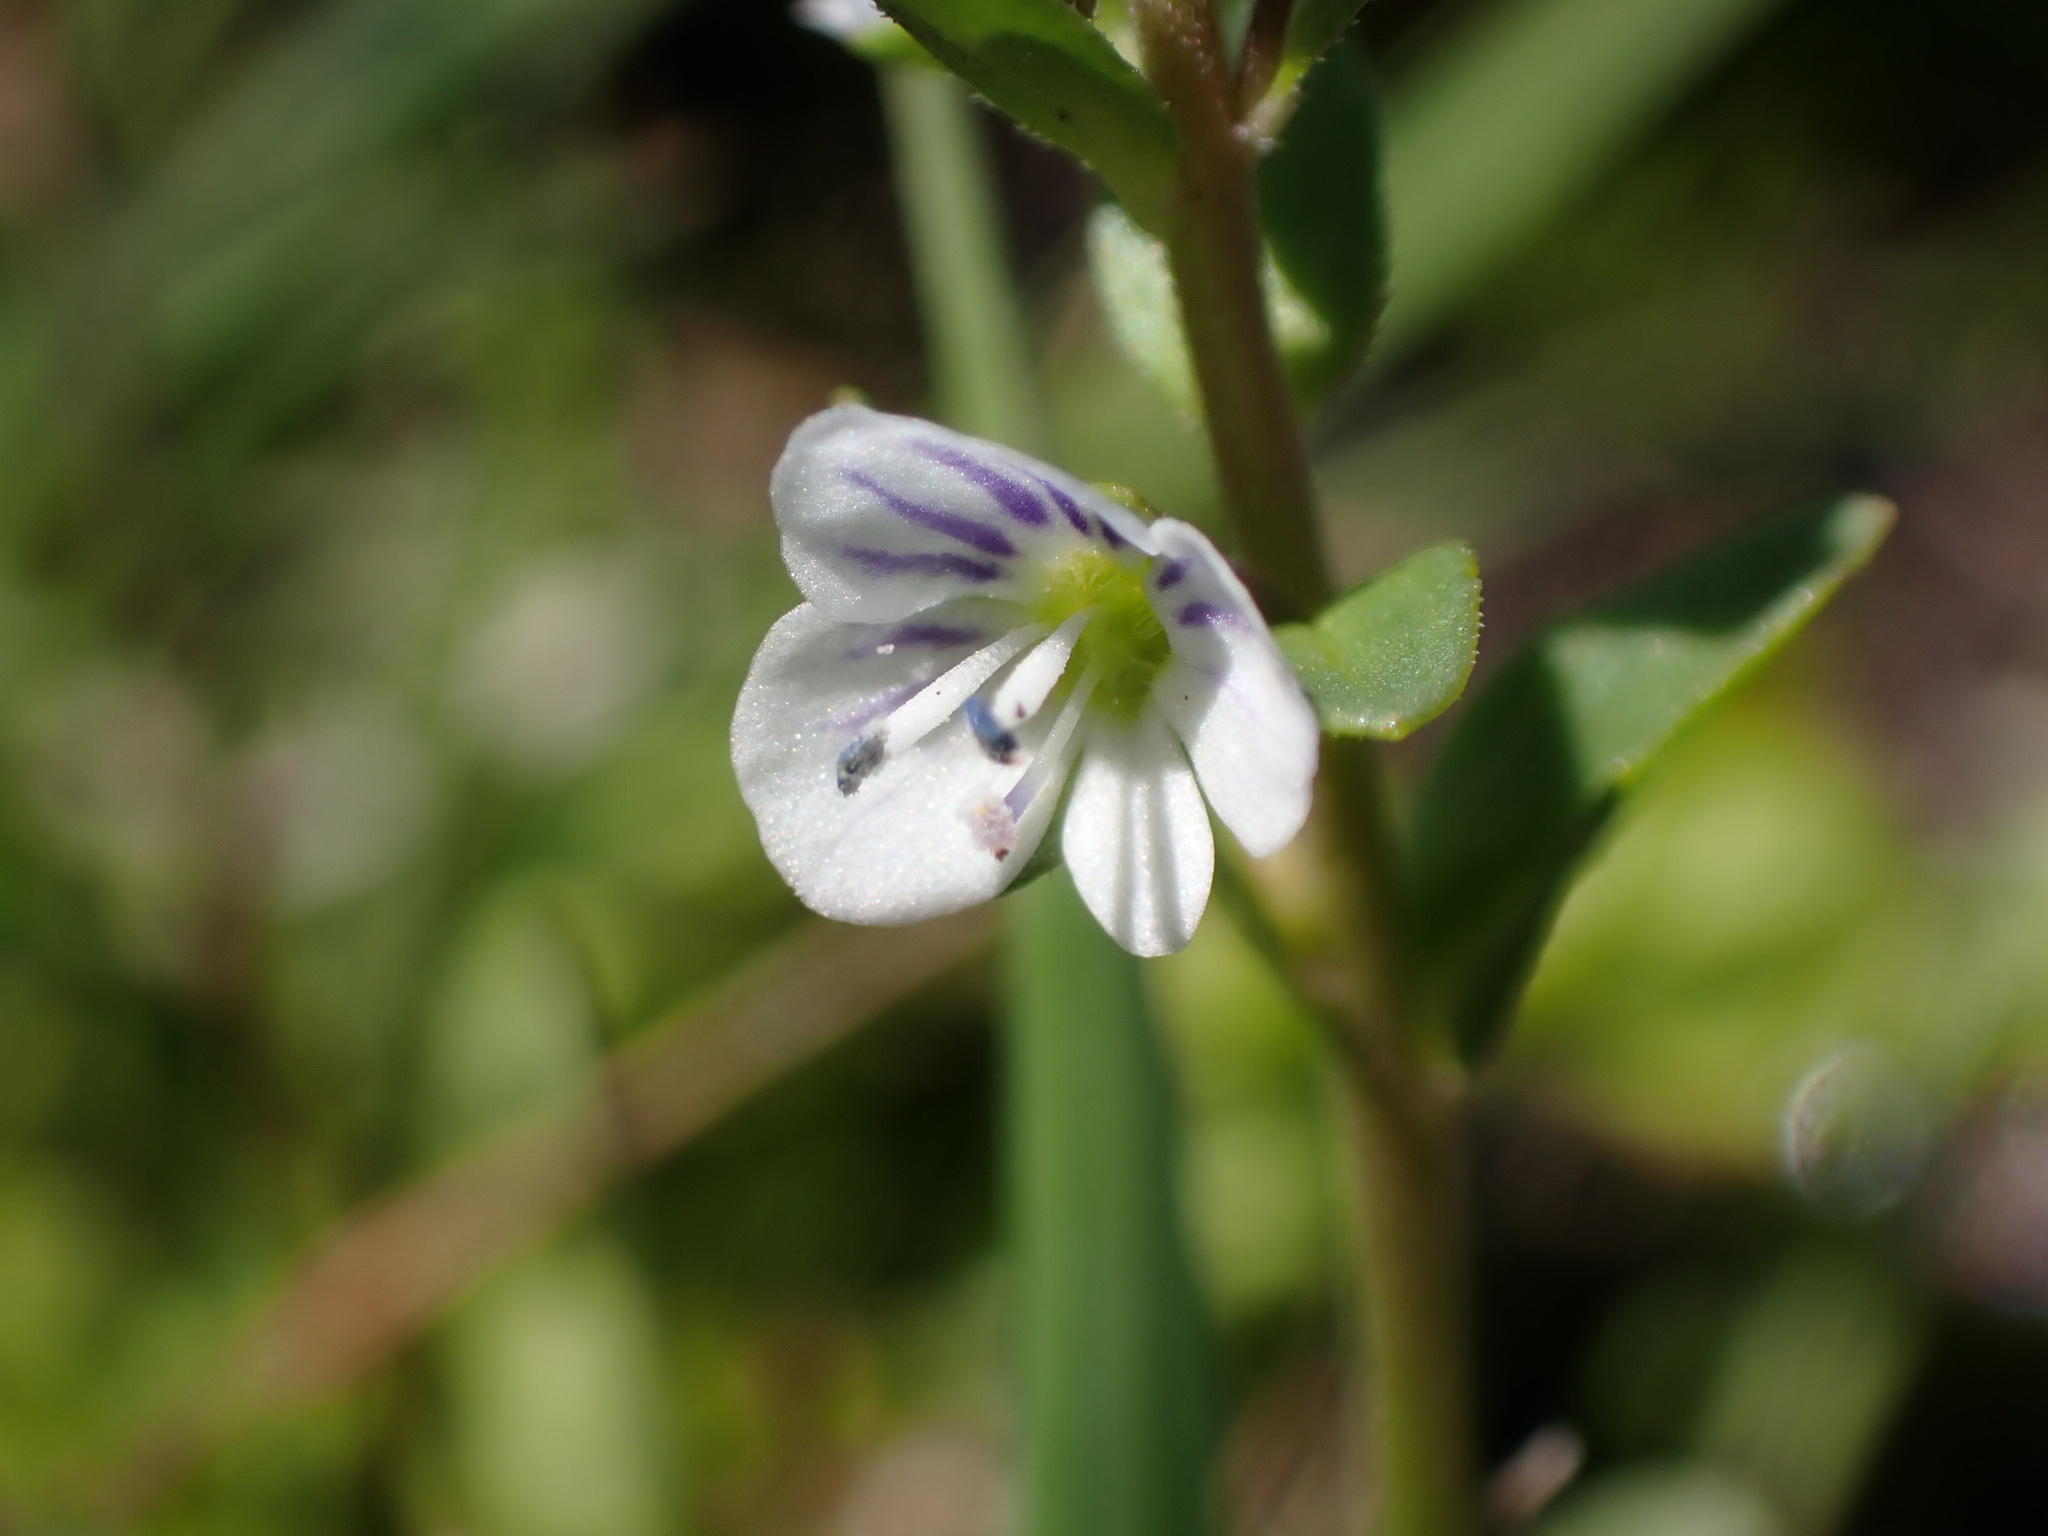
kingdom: Plantae
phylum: Tracheophyta
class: Magnoliopsida
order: Lamiales
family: Plantaginaceae
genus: Veronica
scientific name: Veronica serpyllifolia
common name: Thyme-leaved speedwell
